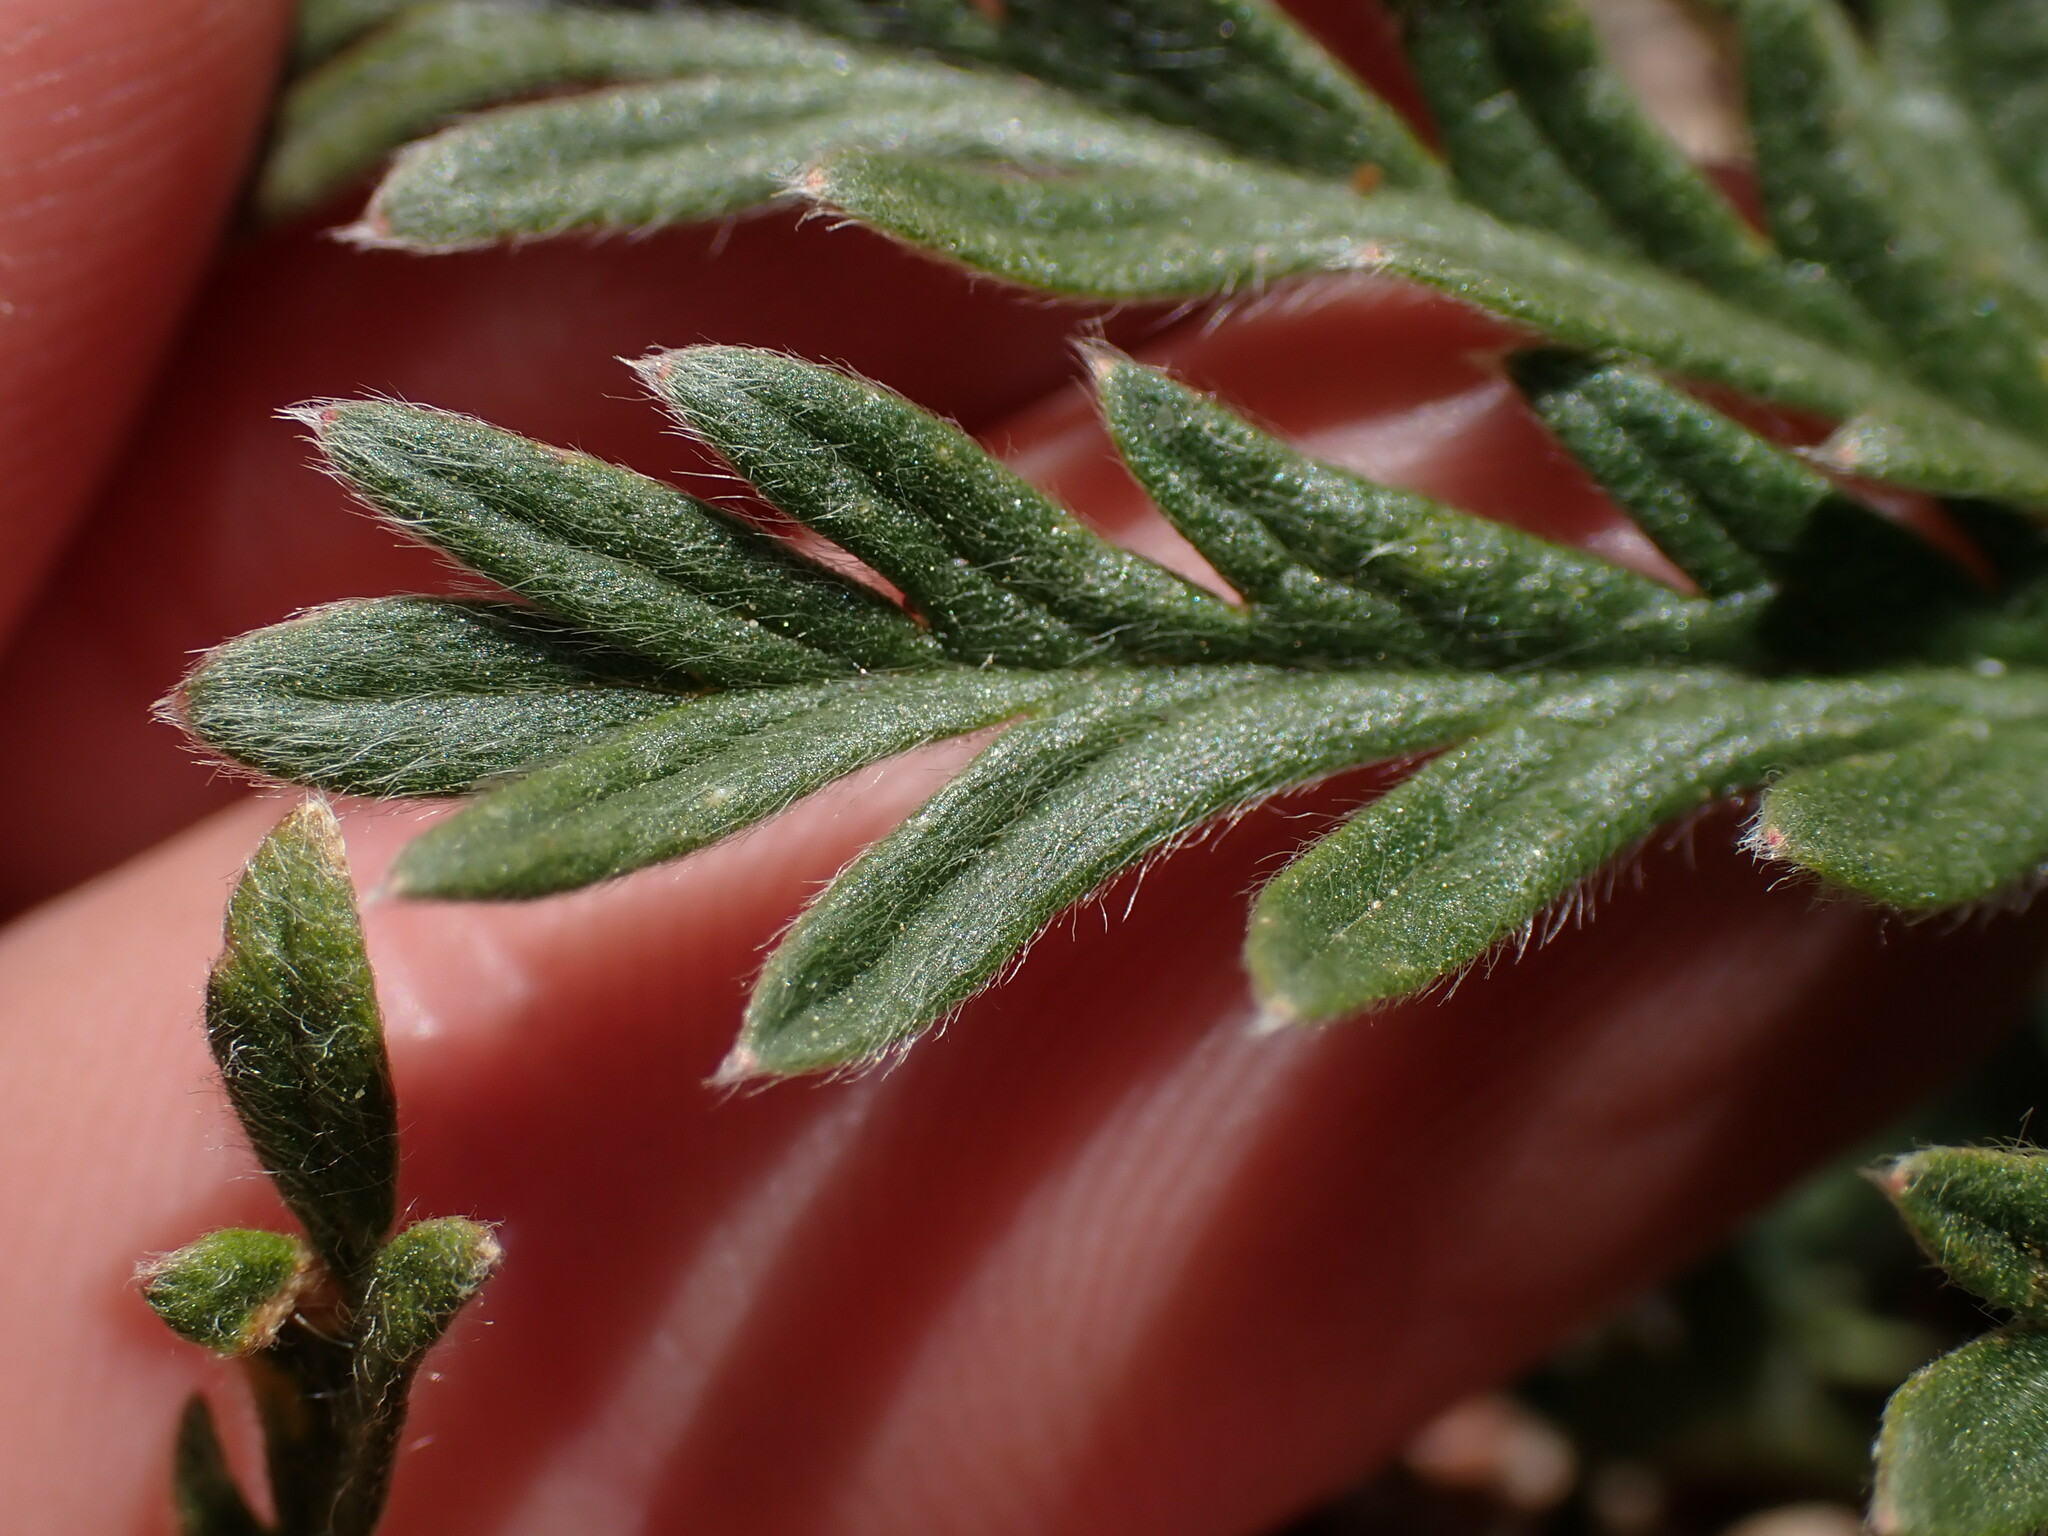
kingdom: Plantae
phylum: Tracheophyta
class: Magnoliopsida
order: Rosales
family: Rosaceae
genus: Potentilla
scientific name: Potentilla jepsonii
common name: Jepson's cinquefoil
